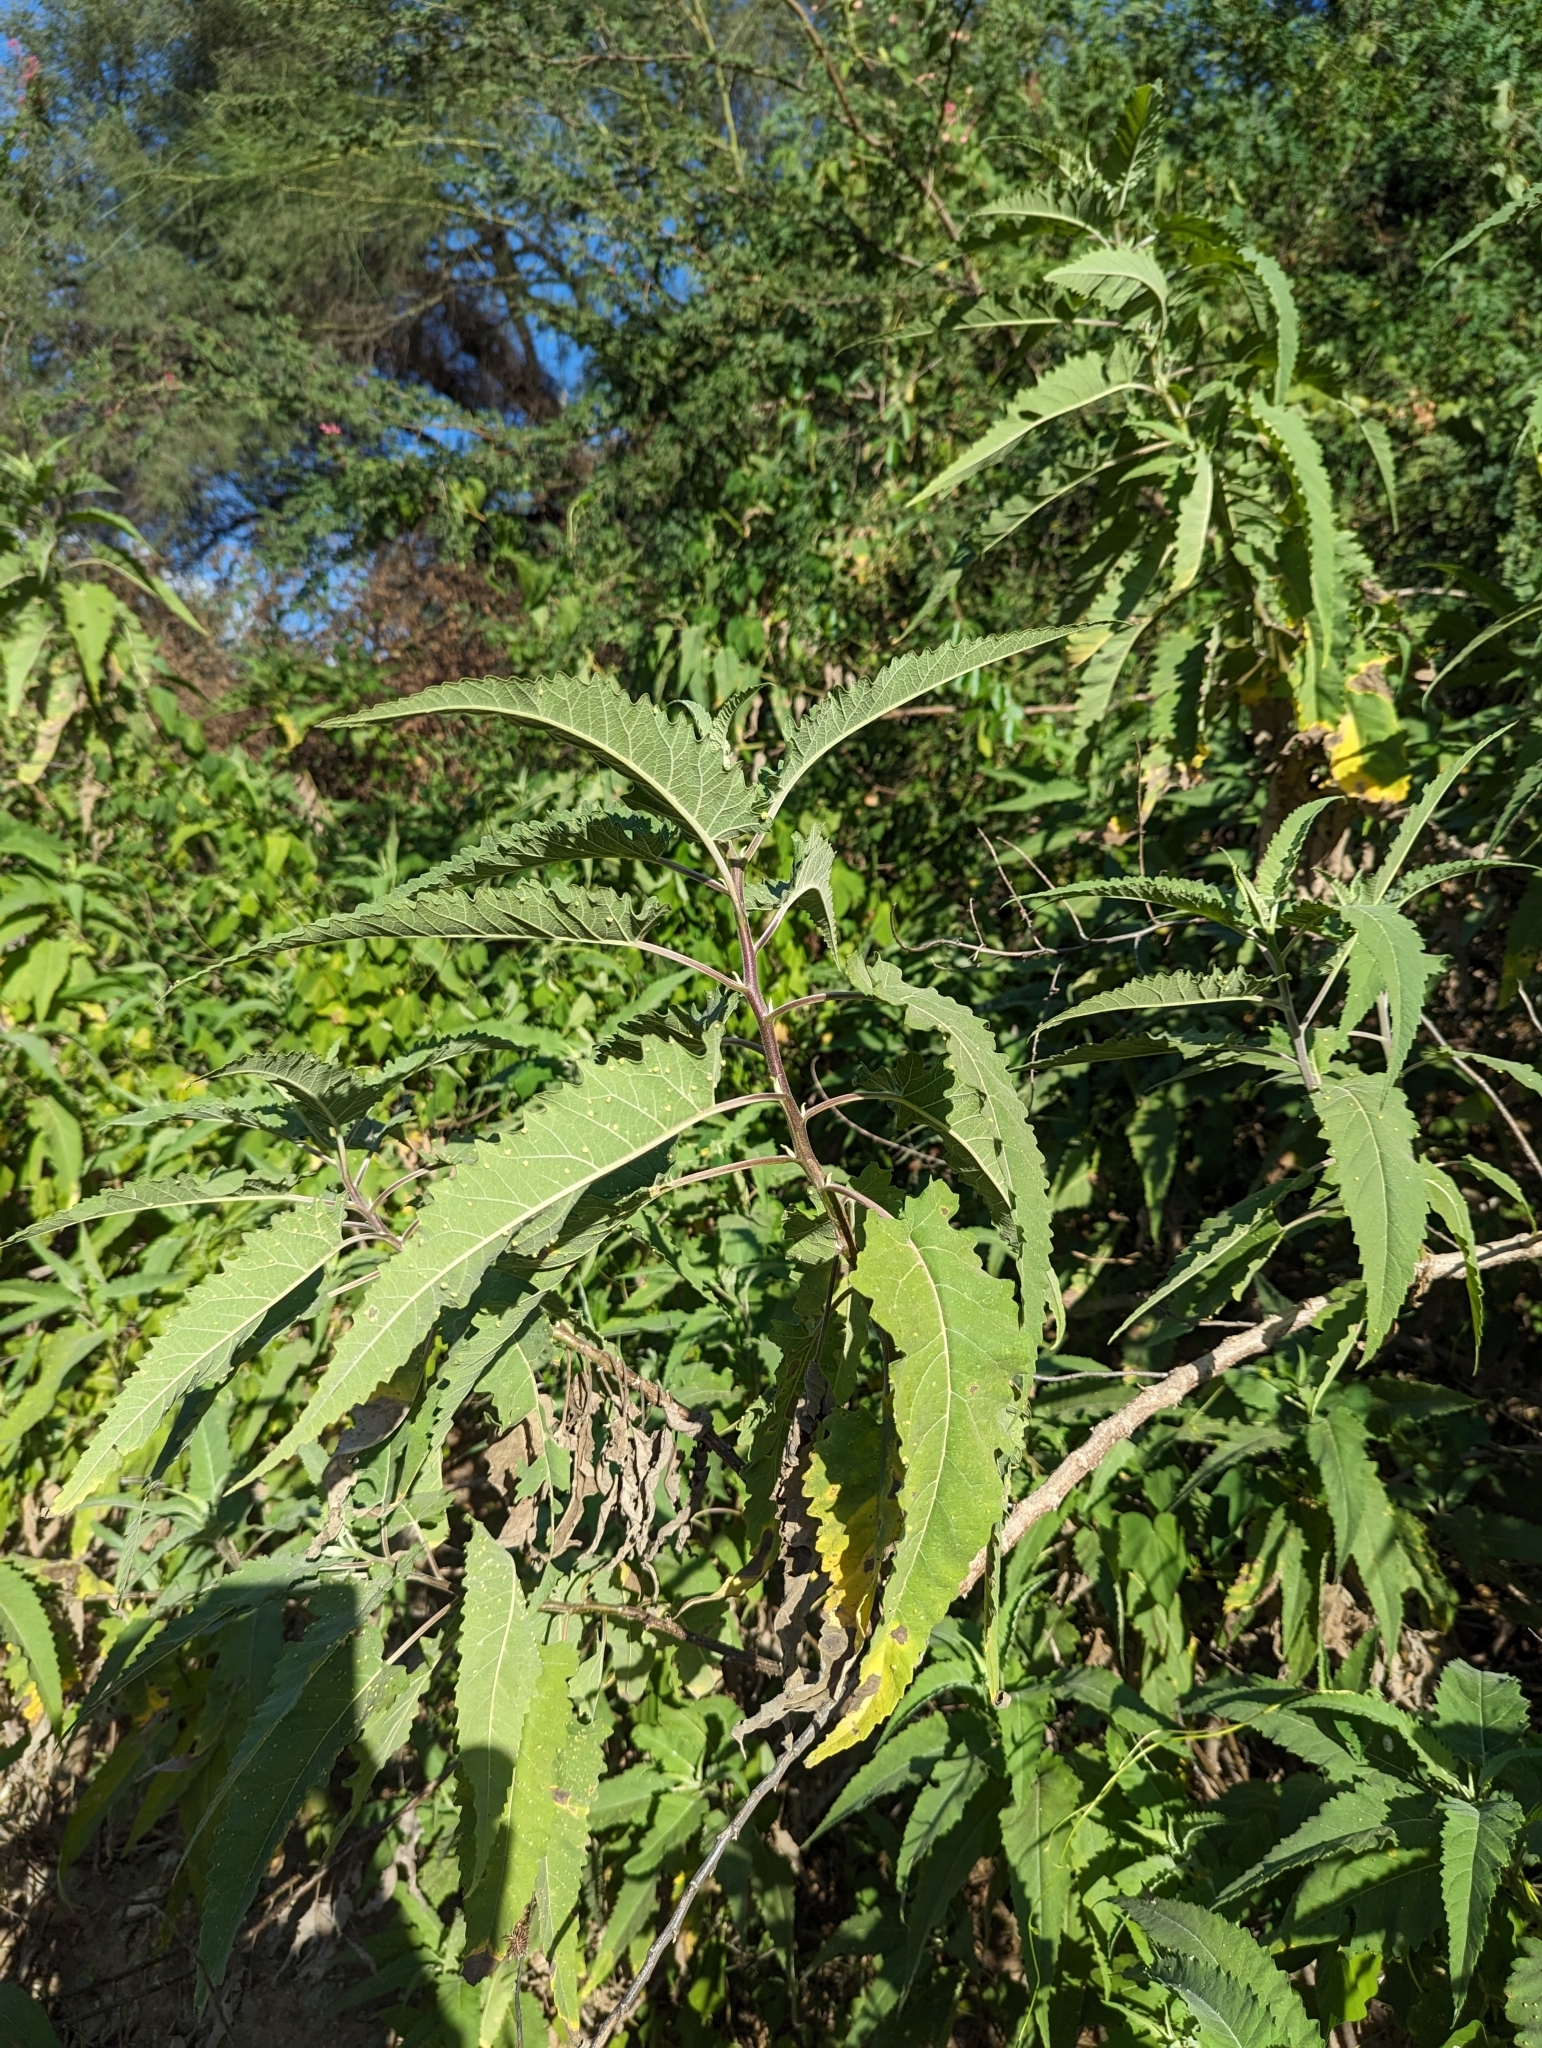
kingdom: Plantae
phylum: Tracheophyta
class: Magnoliopsida
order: Asterales
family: Asteraceae
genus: Ambrosia
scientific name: Ambrosia ambrosioides
